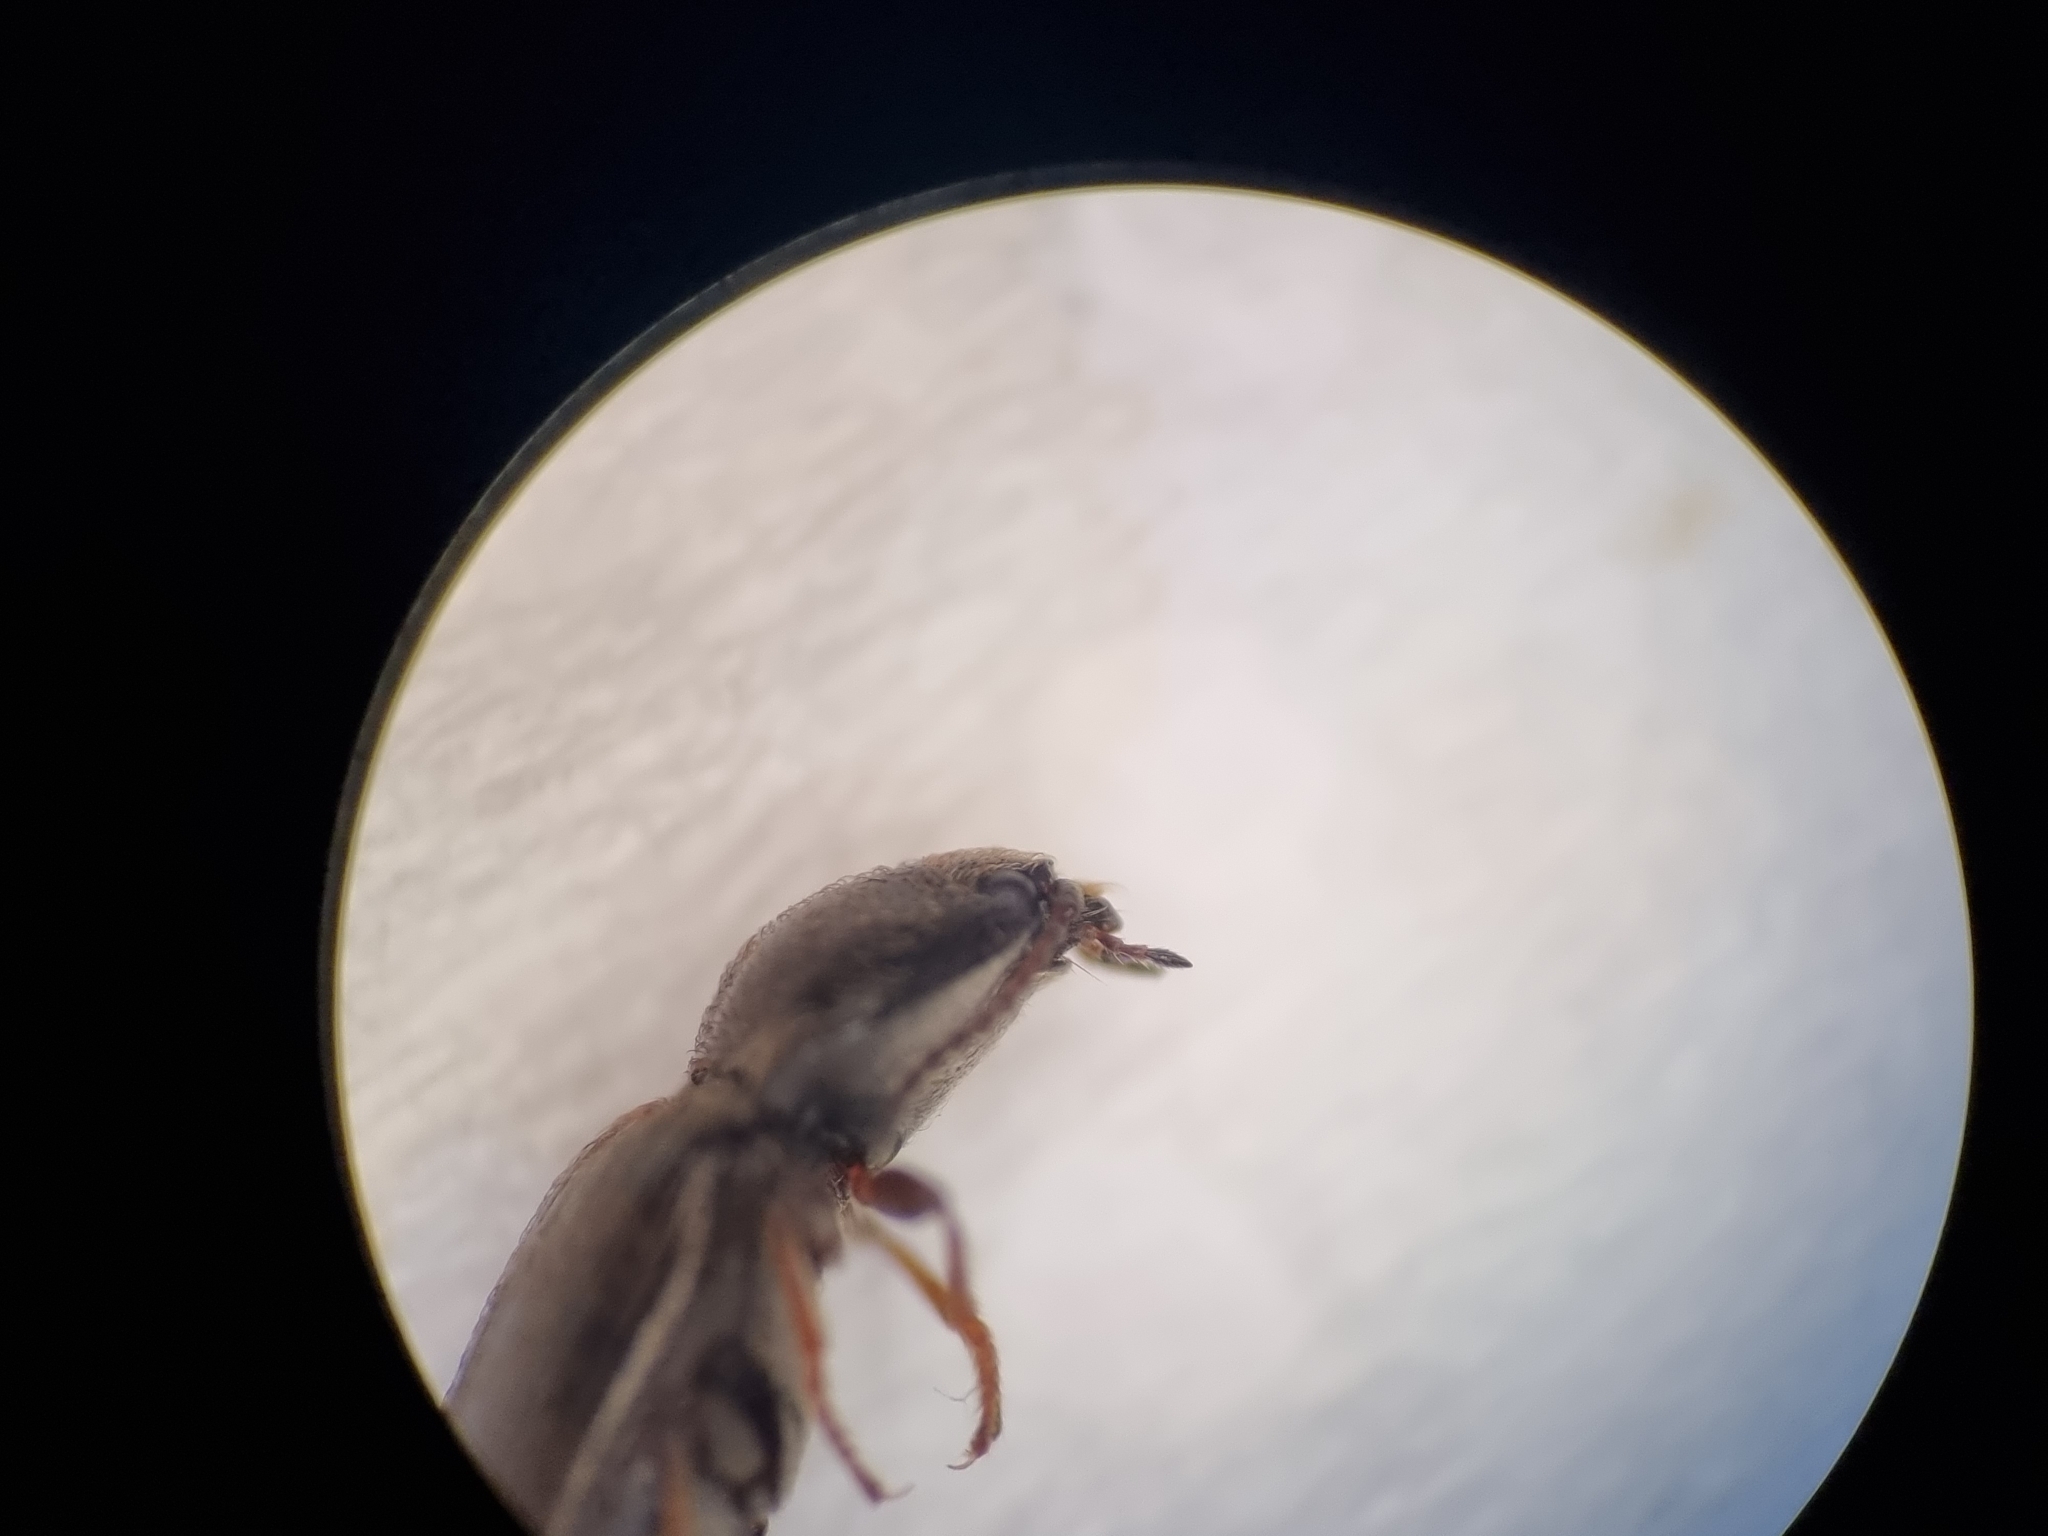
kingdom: Animalia
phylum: Arthropoda
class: Insecta
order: Coleoptera
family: Elateridae
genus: Hypnoidus
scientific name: Hypnoidus riparius
